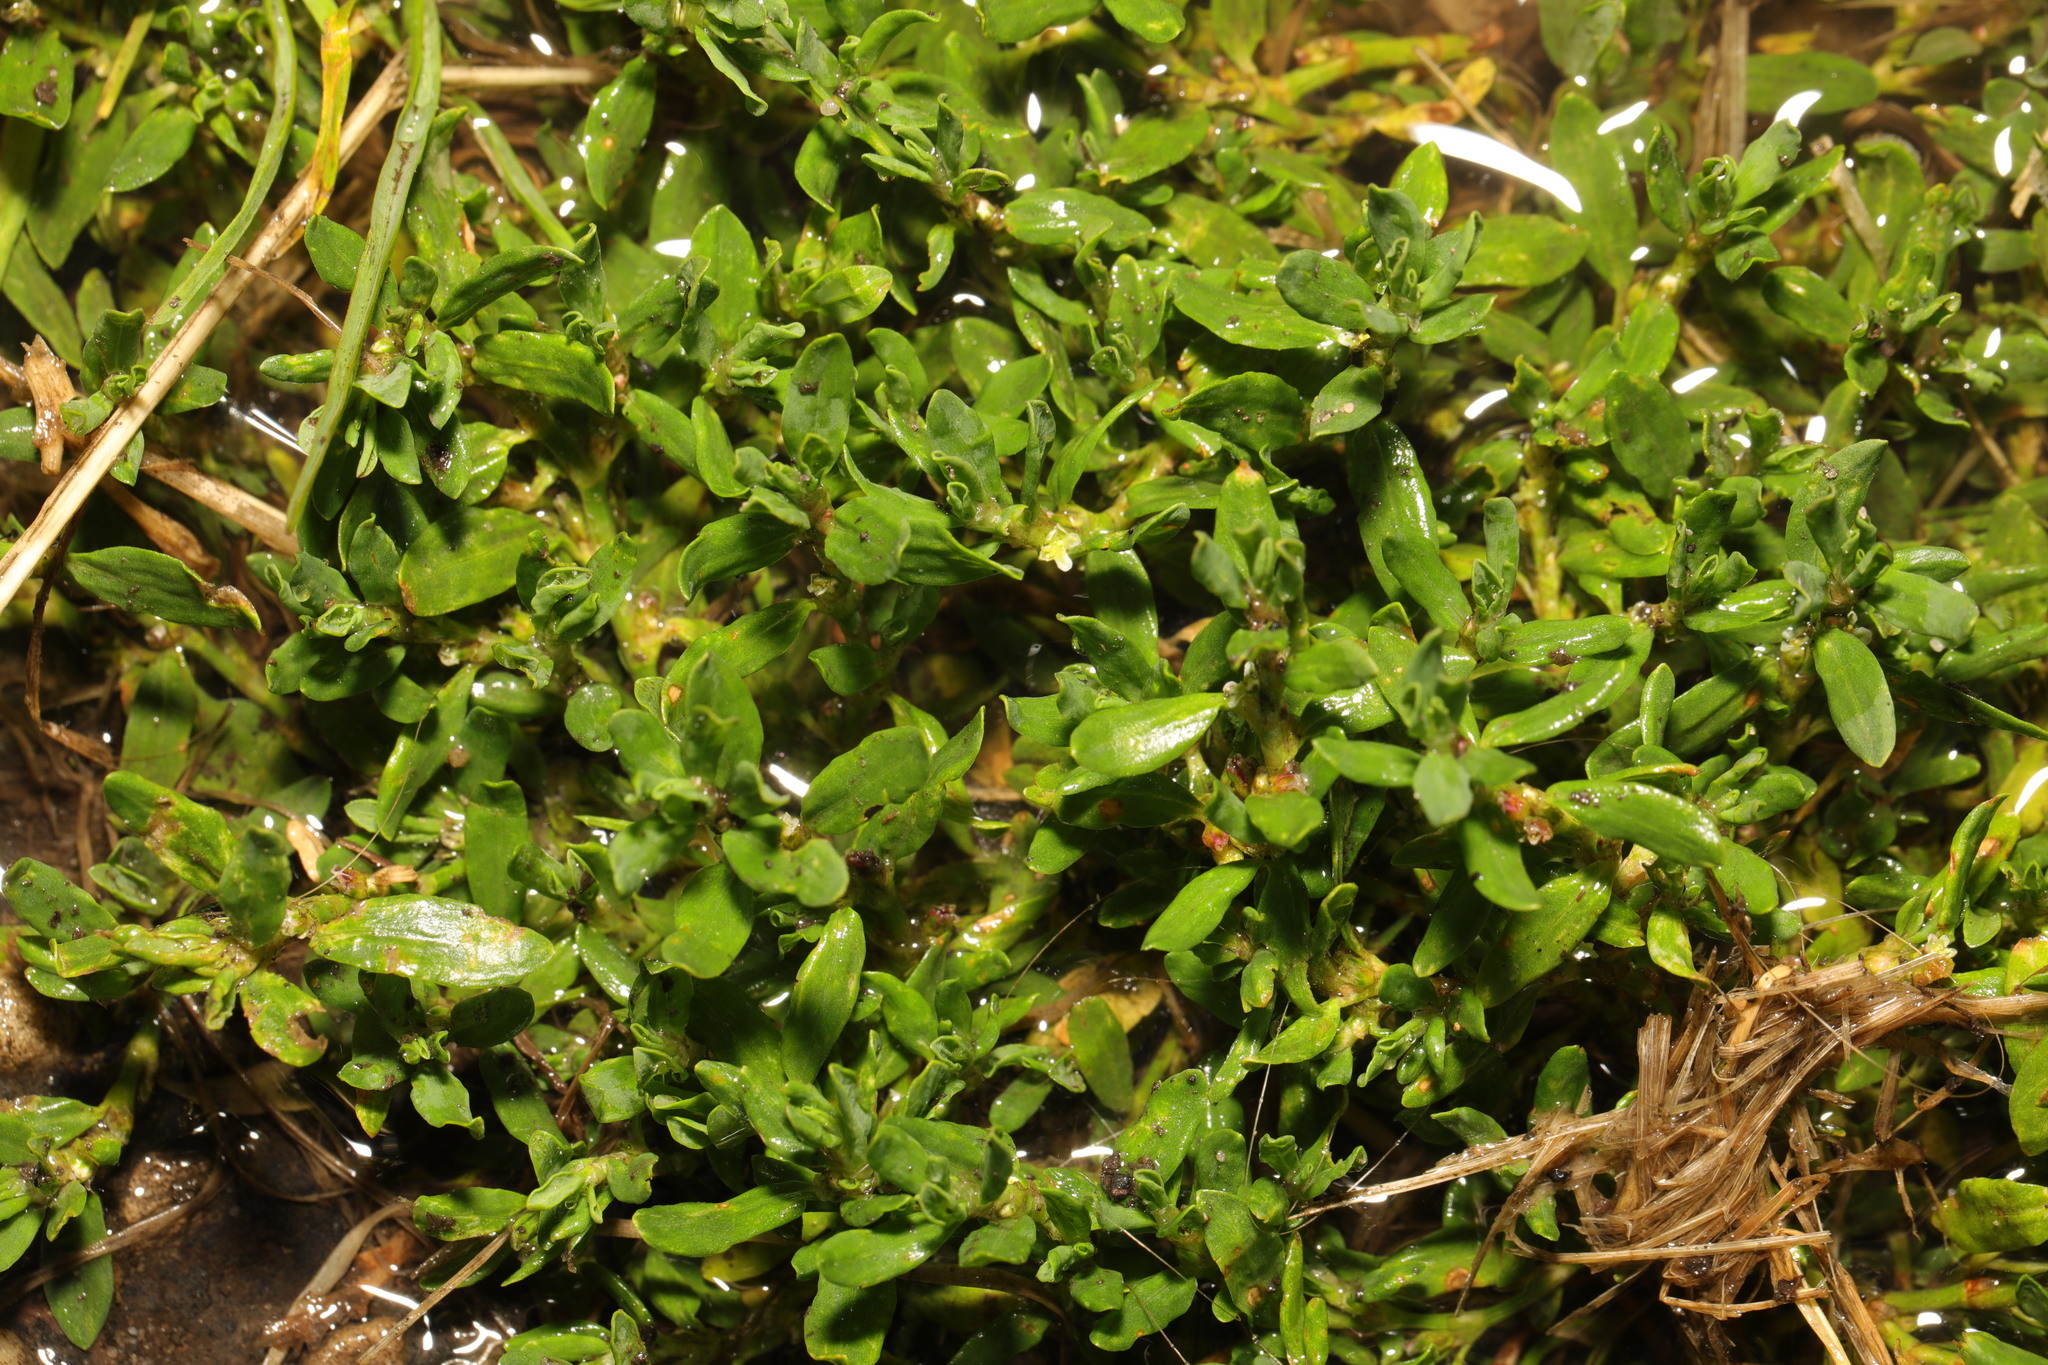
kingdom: Plantae
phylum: Tracheophyta
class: Magnoliopsida
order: Caryophyllales
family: Montiaceae
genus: Montia
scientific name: Montia fontana
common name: Blinks
